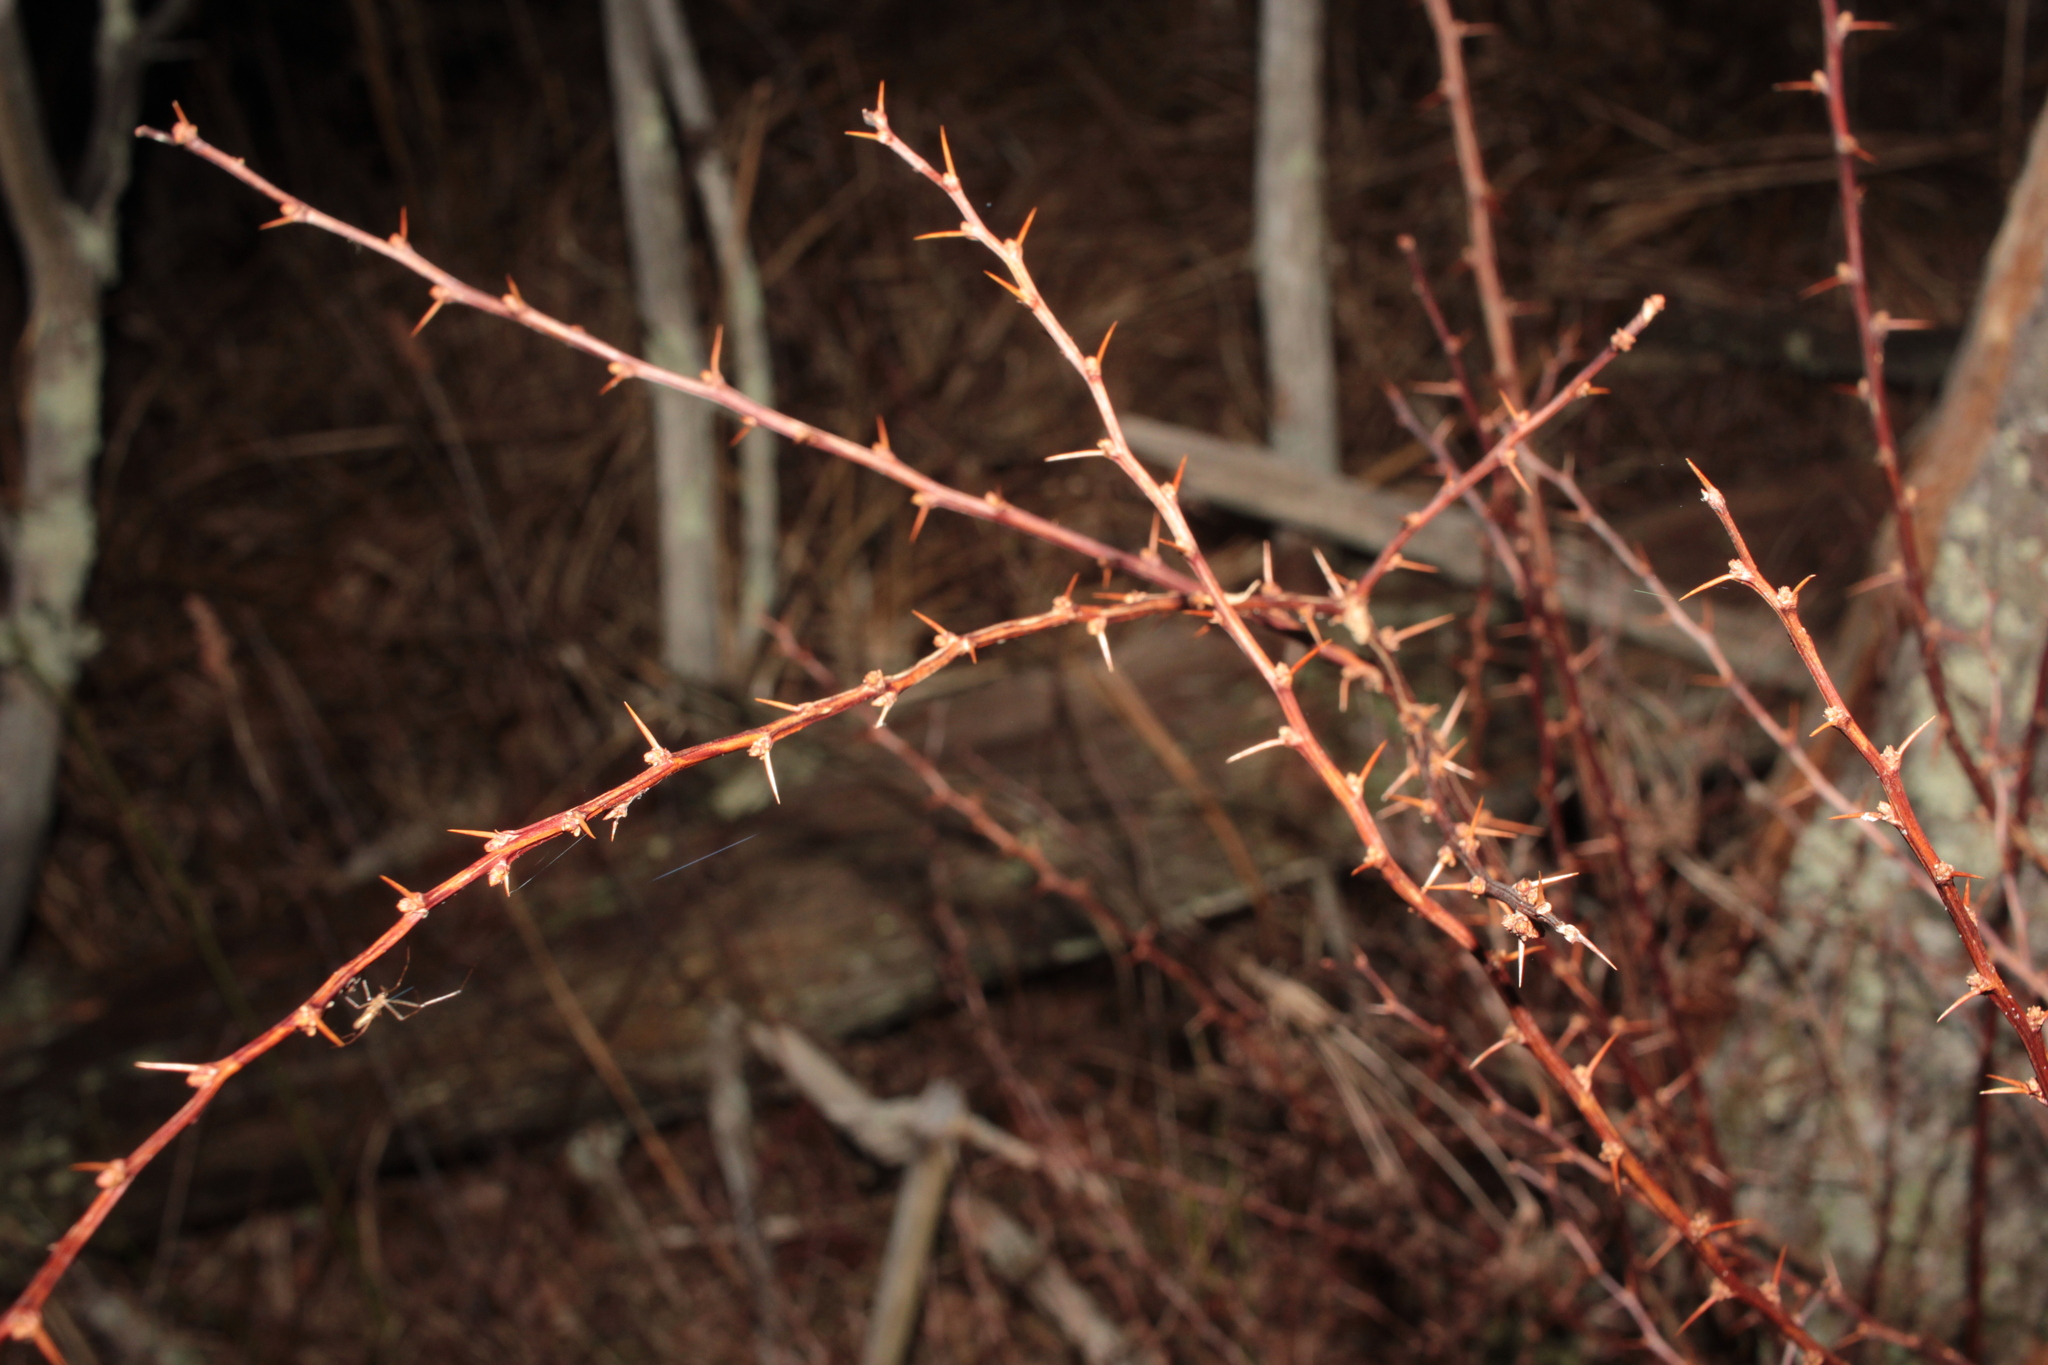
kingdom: Plantae
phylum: Tracheophyta
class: Magnoliopsida
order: Ranunculales
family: Berberidaceae
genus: Berberis
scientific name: Berberis thunbergii
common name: Japanese barberry
